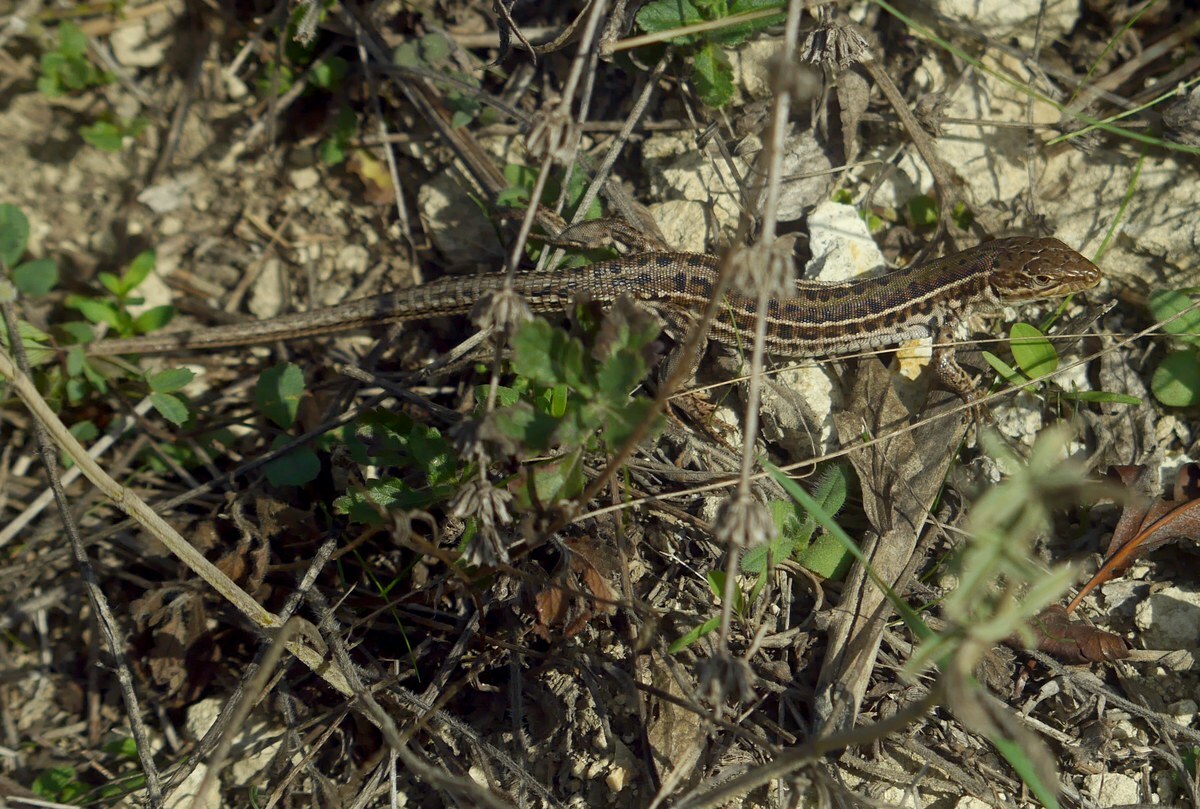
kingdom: Animalia
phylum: Chordata
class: Squamata
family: Lacertidae
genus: Podarcis
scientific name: Podarcis tauricus
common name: Balkan wall lizard
